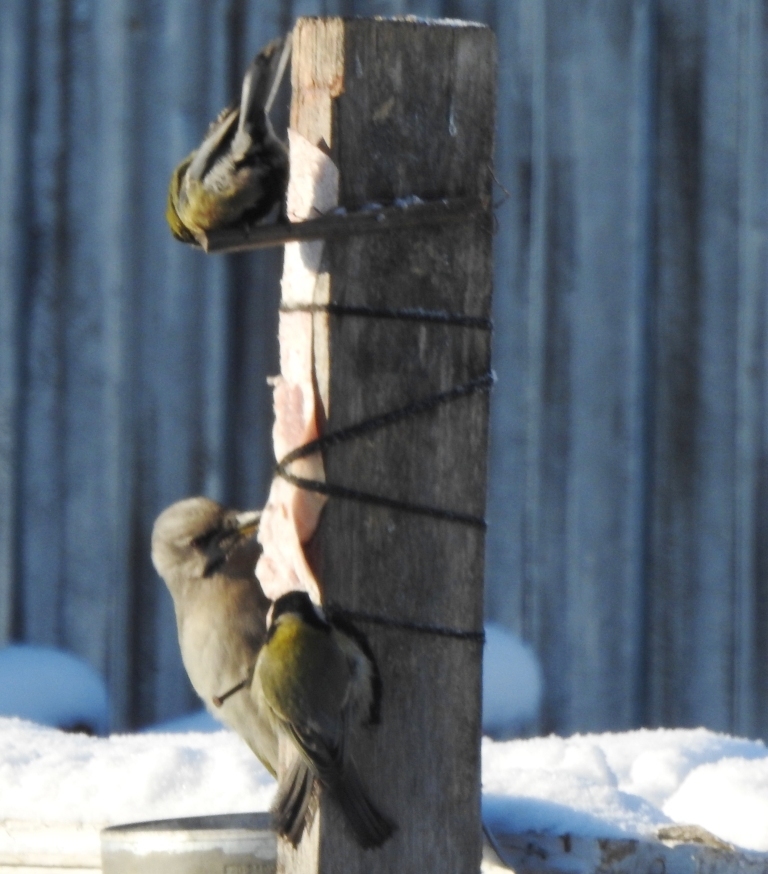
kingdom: Animalia
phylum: Chordata
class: Aves
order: Passeriformes
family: Paridae
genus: Parus
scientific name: Parus major
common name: Great tit
